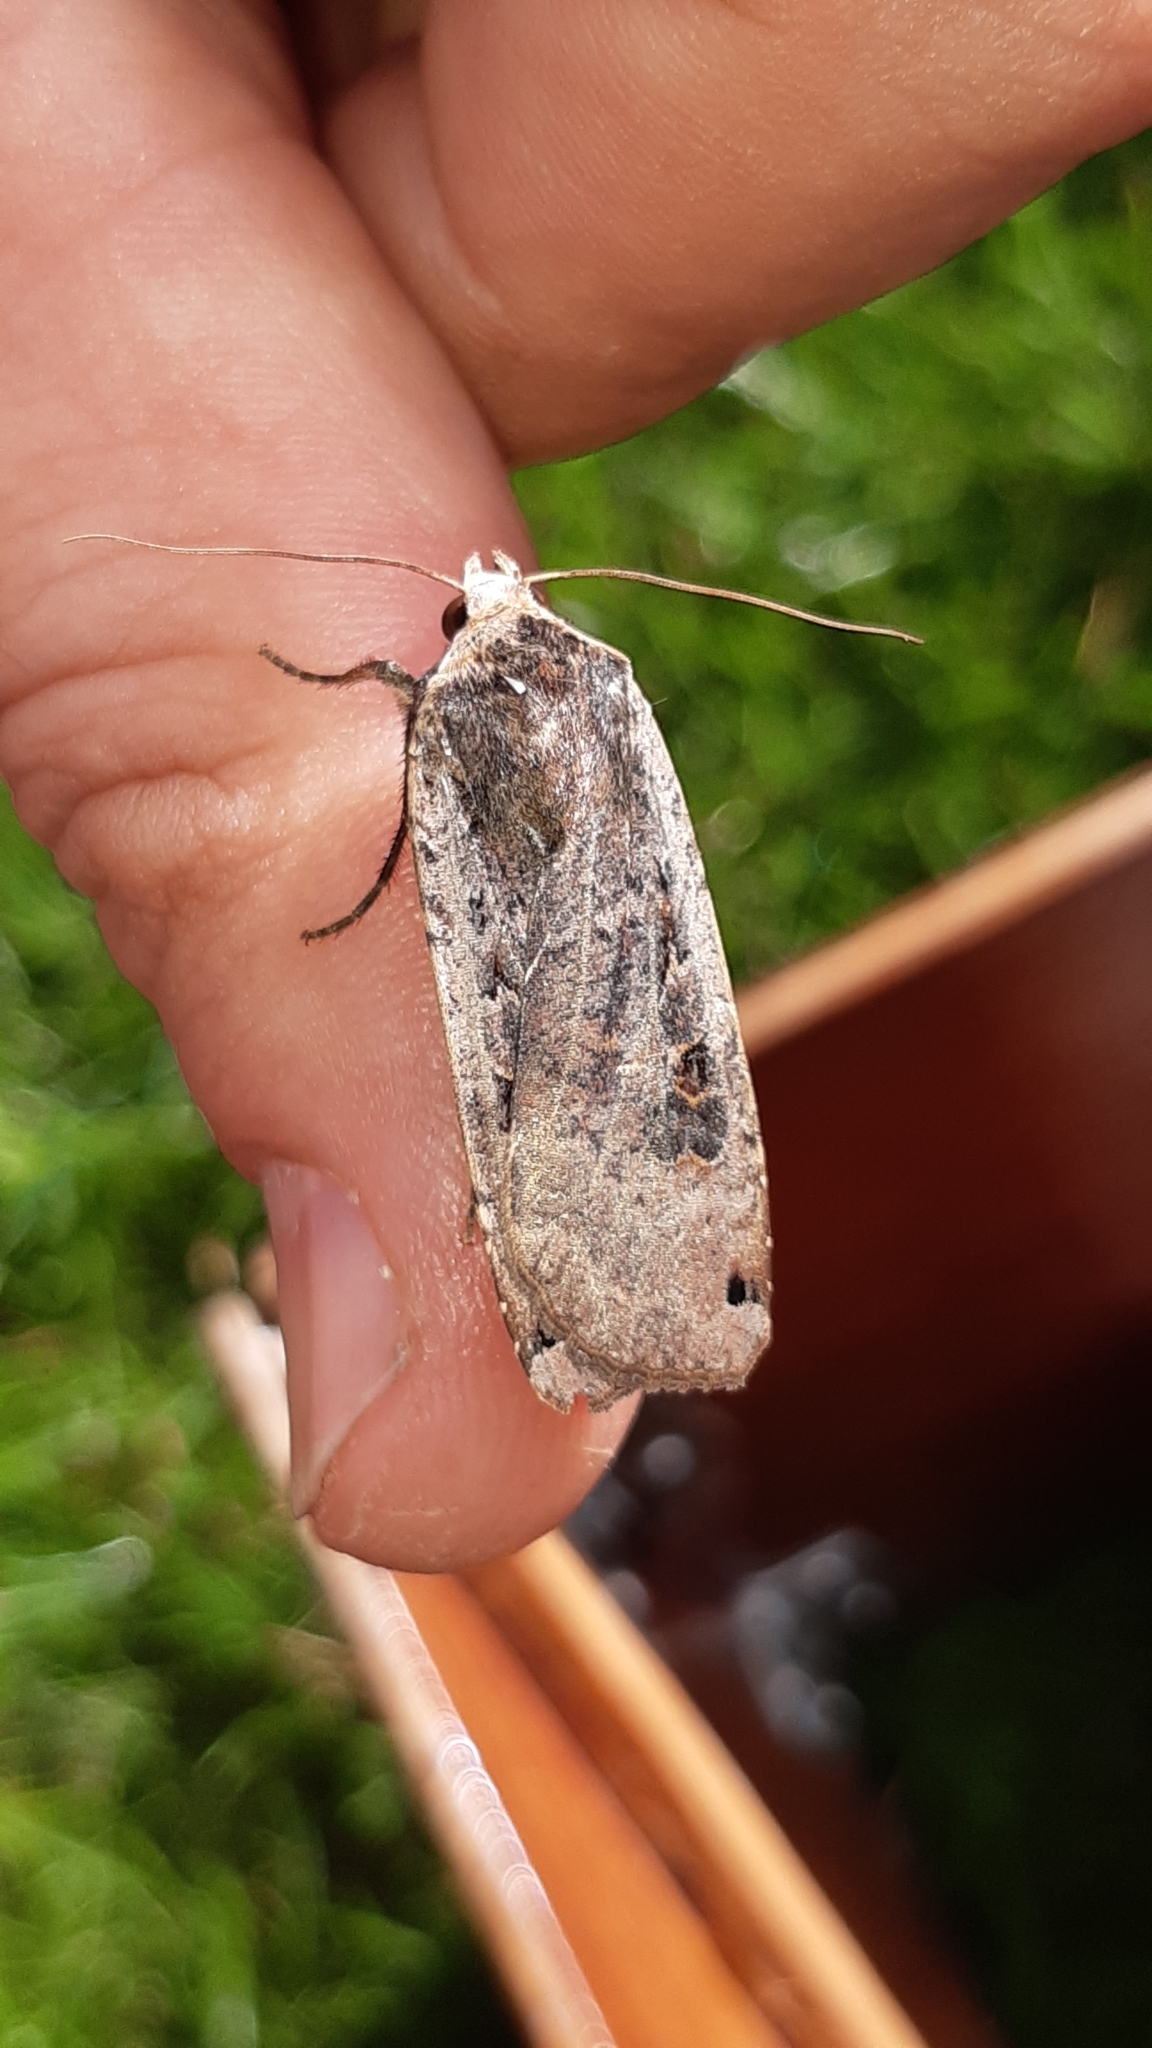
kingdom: Animalia
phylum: Arthropoda
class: Insecta
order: Lepidoptera
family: Noctuidae
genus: Noctua
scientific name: Noctua pronuba
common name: Large yellow underwing
